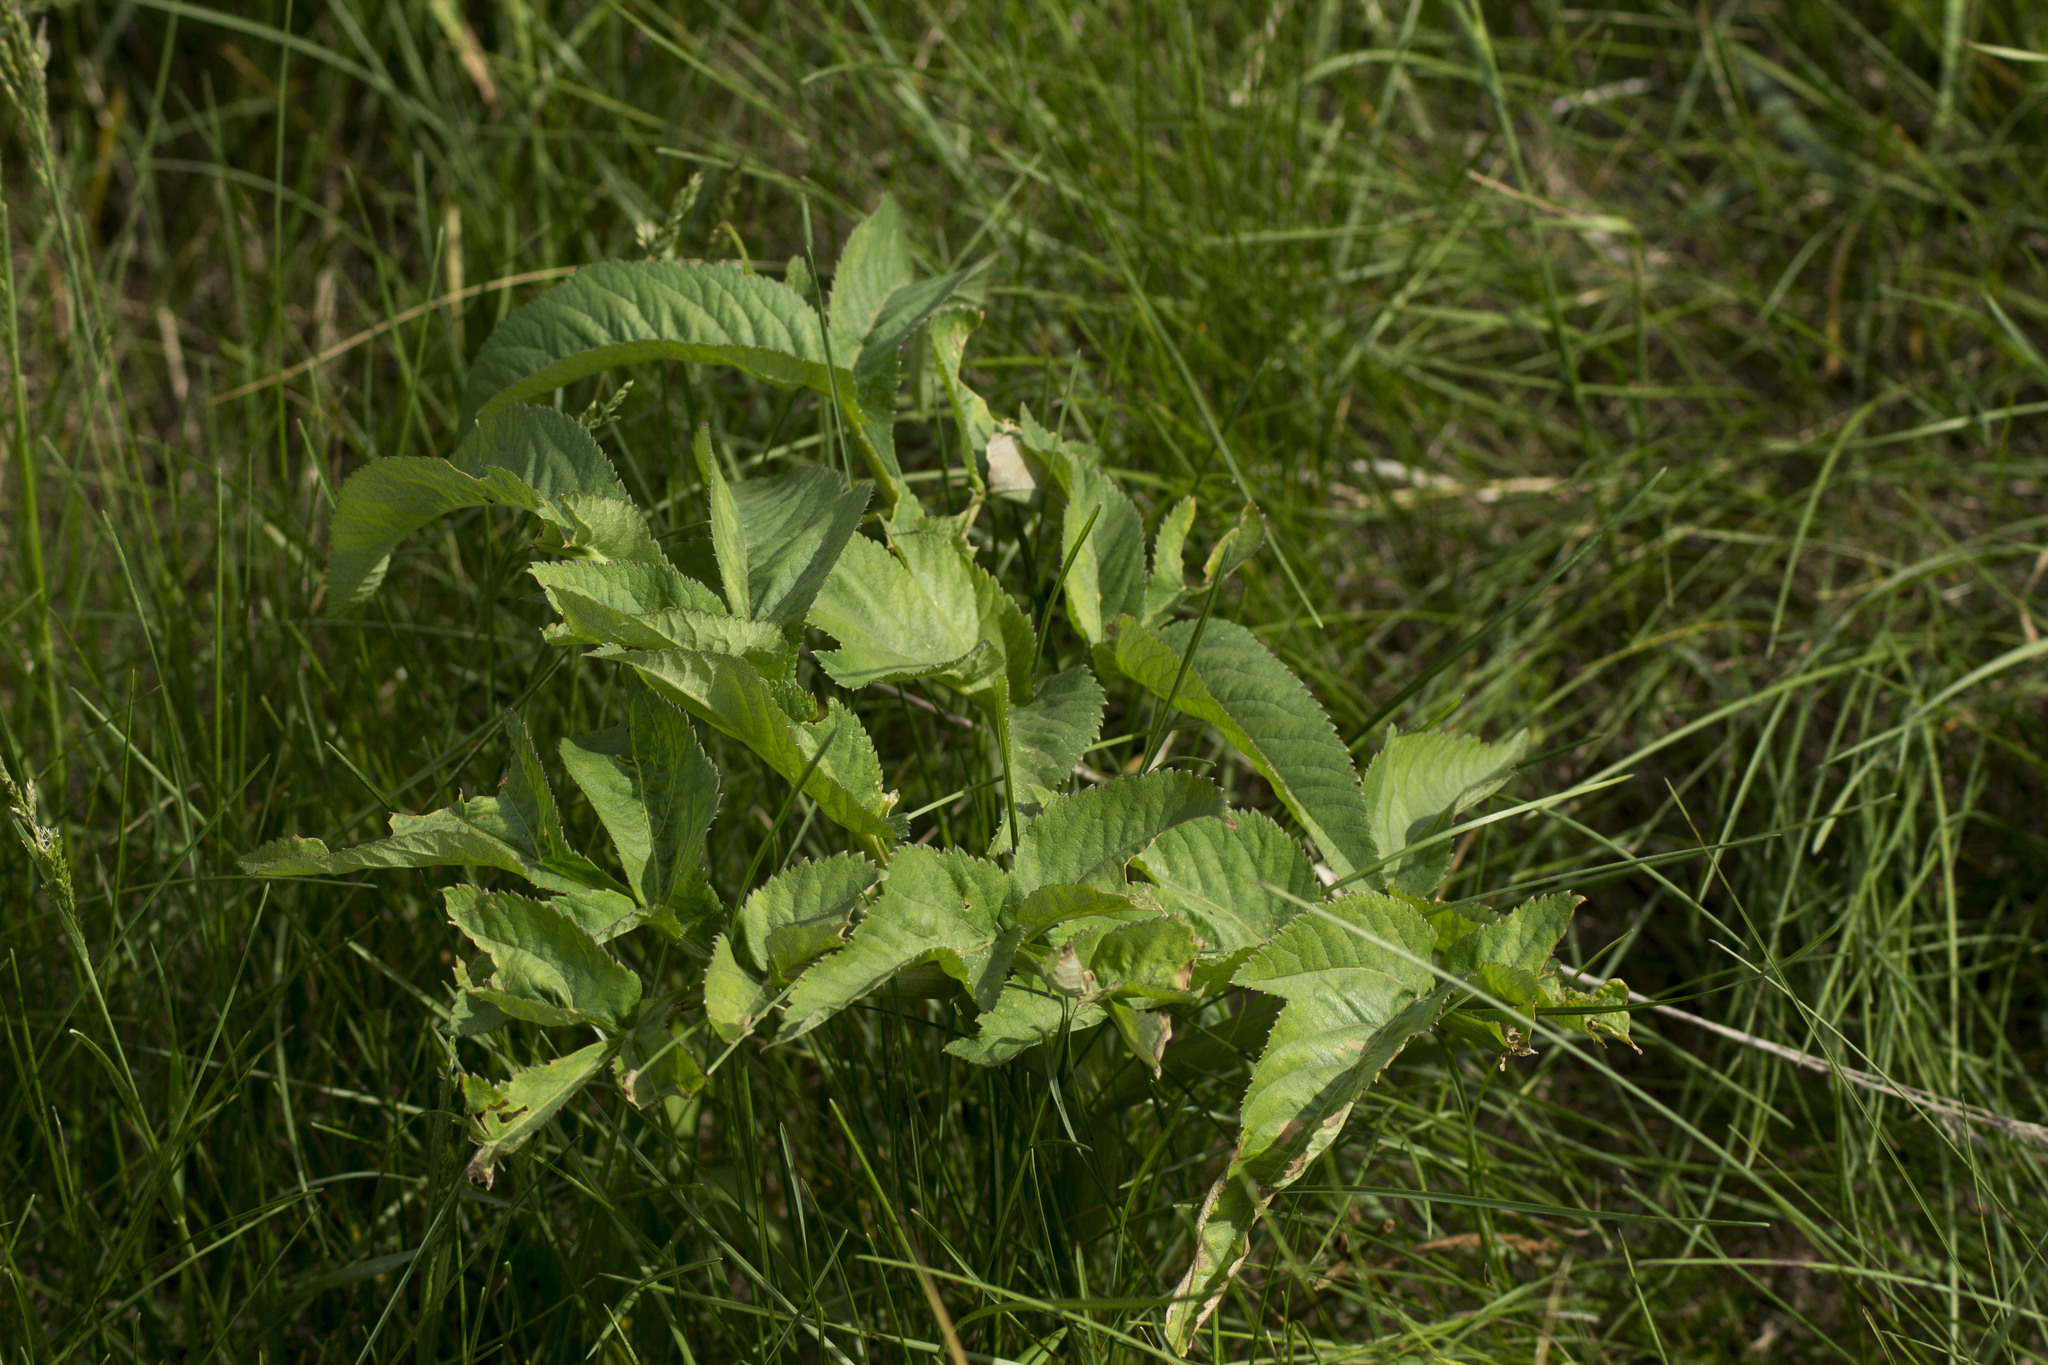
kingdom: Plantae
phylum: Tracheophyta
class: Magnoliopsida
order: Apiales
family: Apiaceae
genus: Angelica
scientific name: Angelica decurrens
